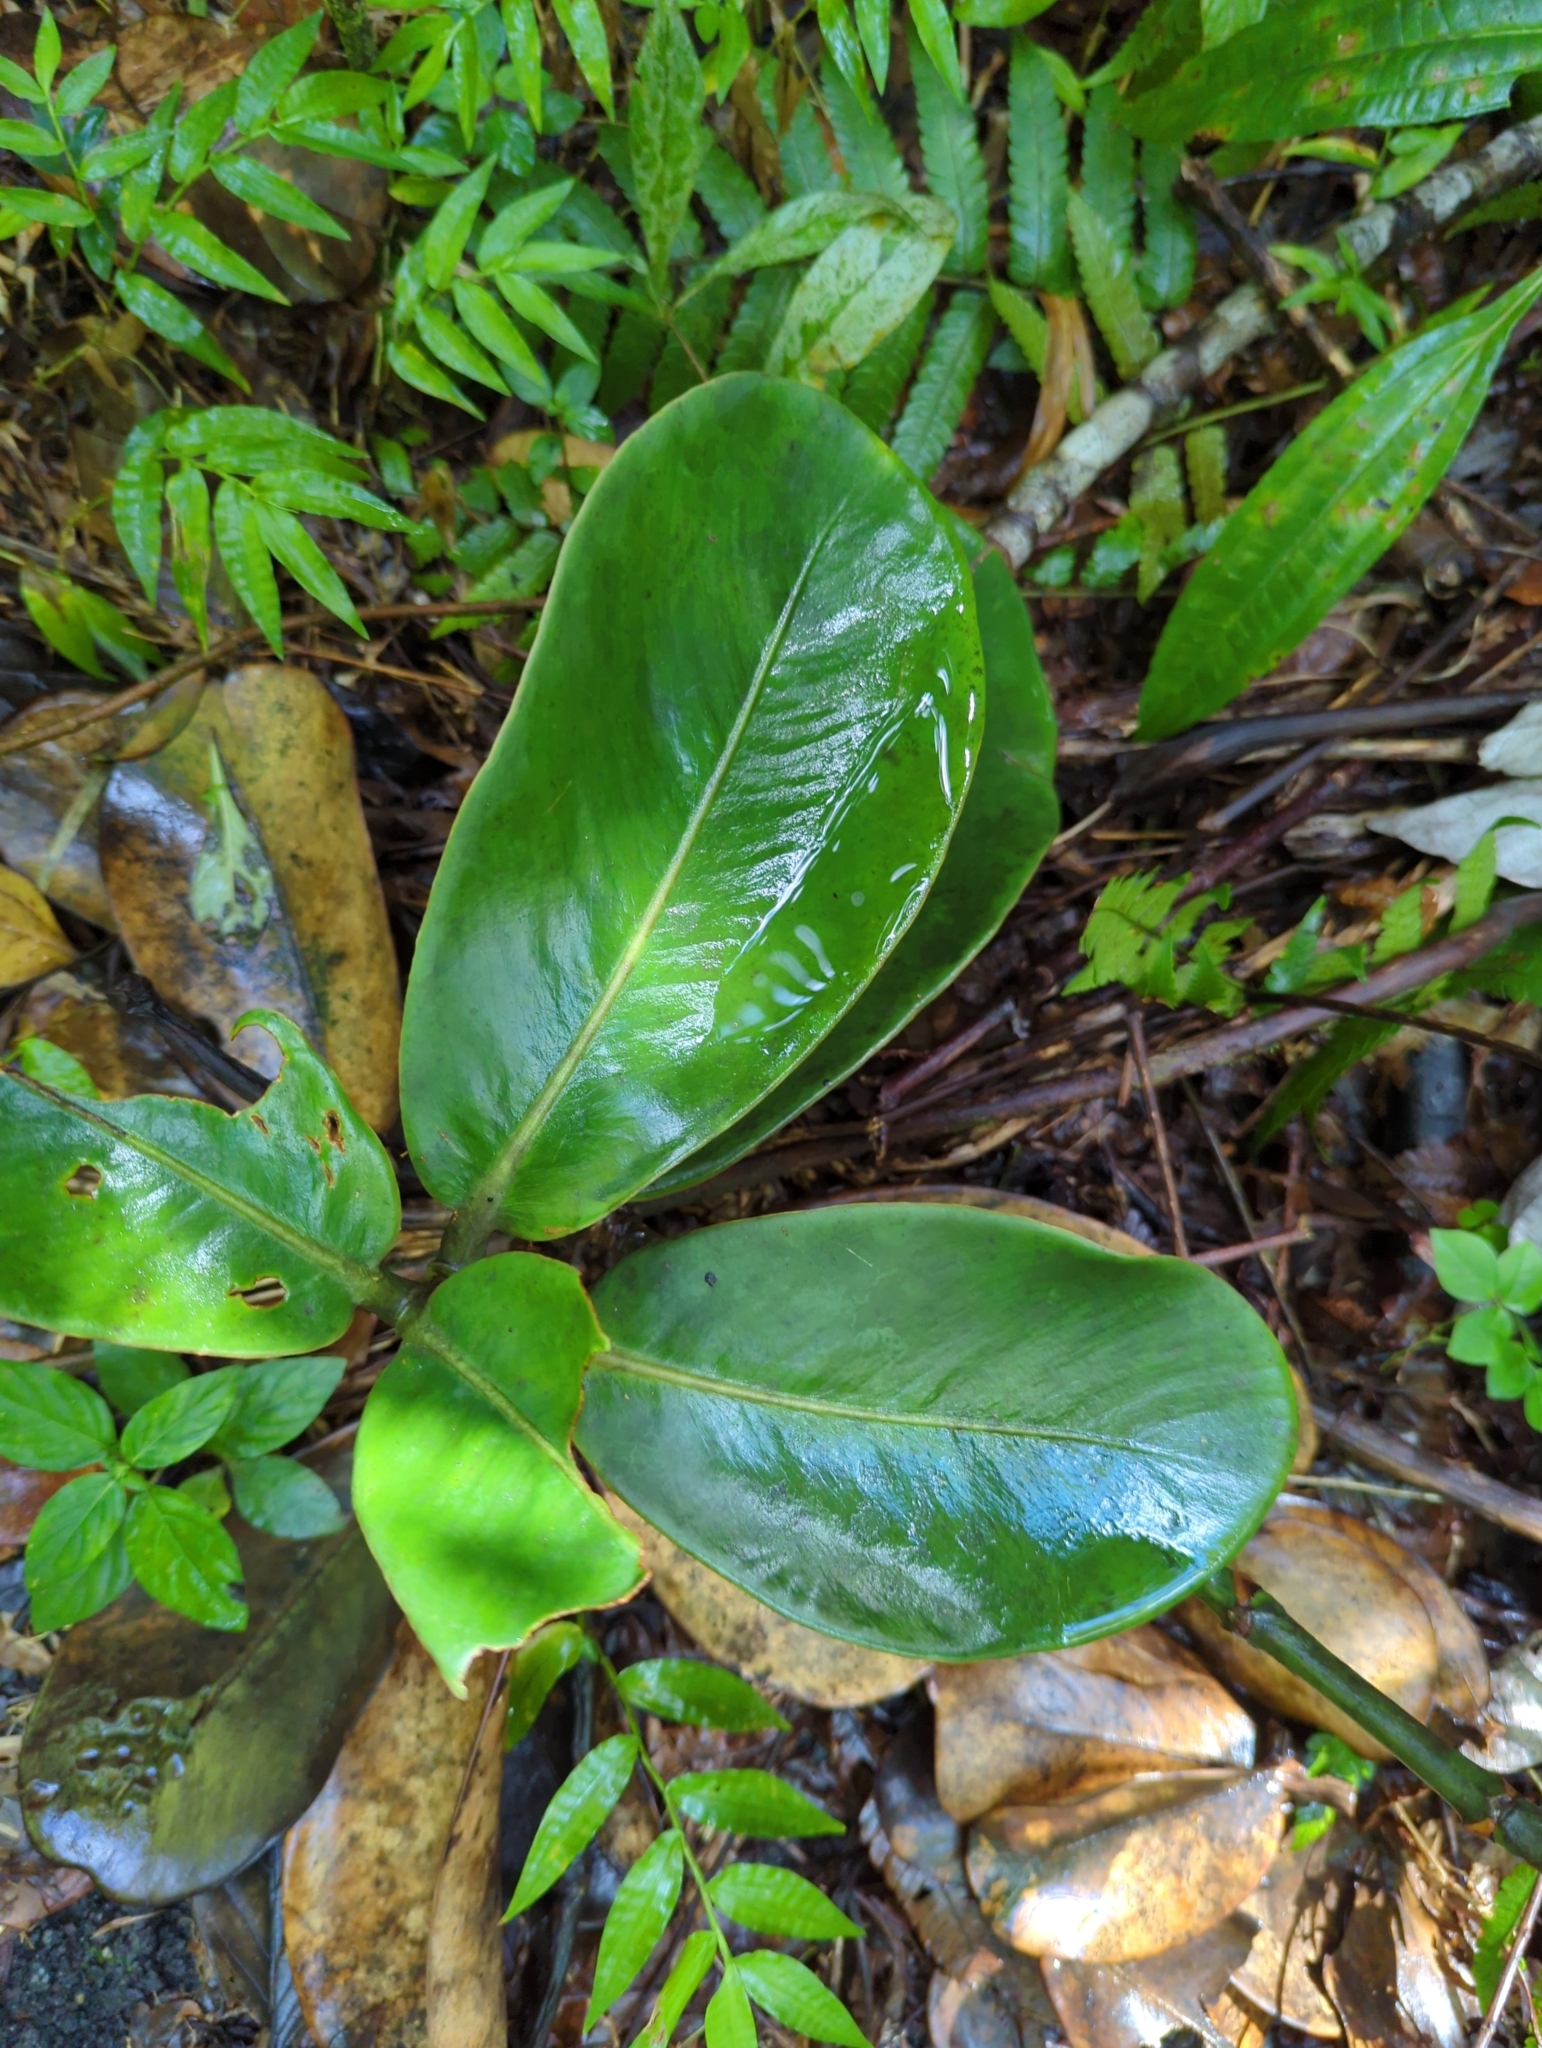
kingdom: Plantae
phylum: Tracheophyta
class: Magnoliopsida
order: Malpighiales
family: Clusiaceae
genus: Clusia
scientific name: Clusia rosea
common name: Scotch attorney
